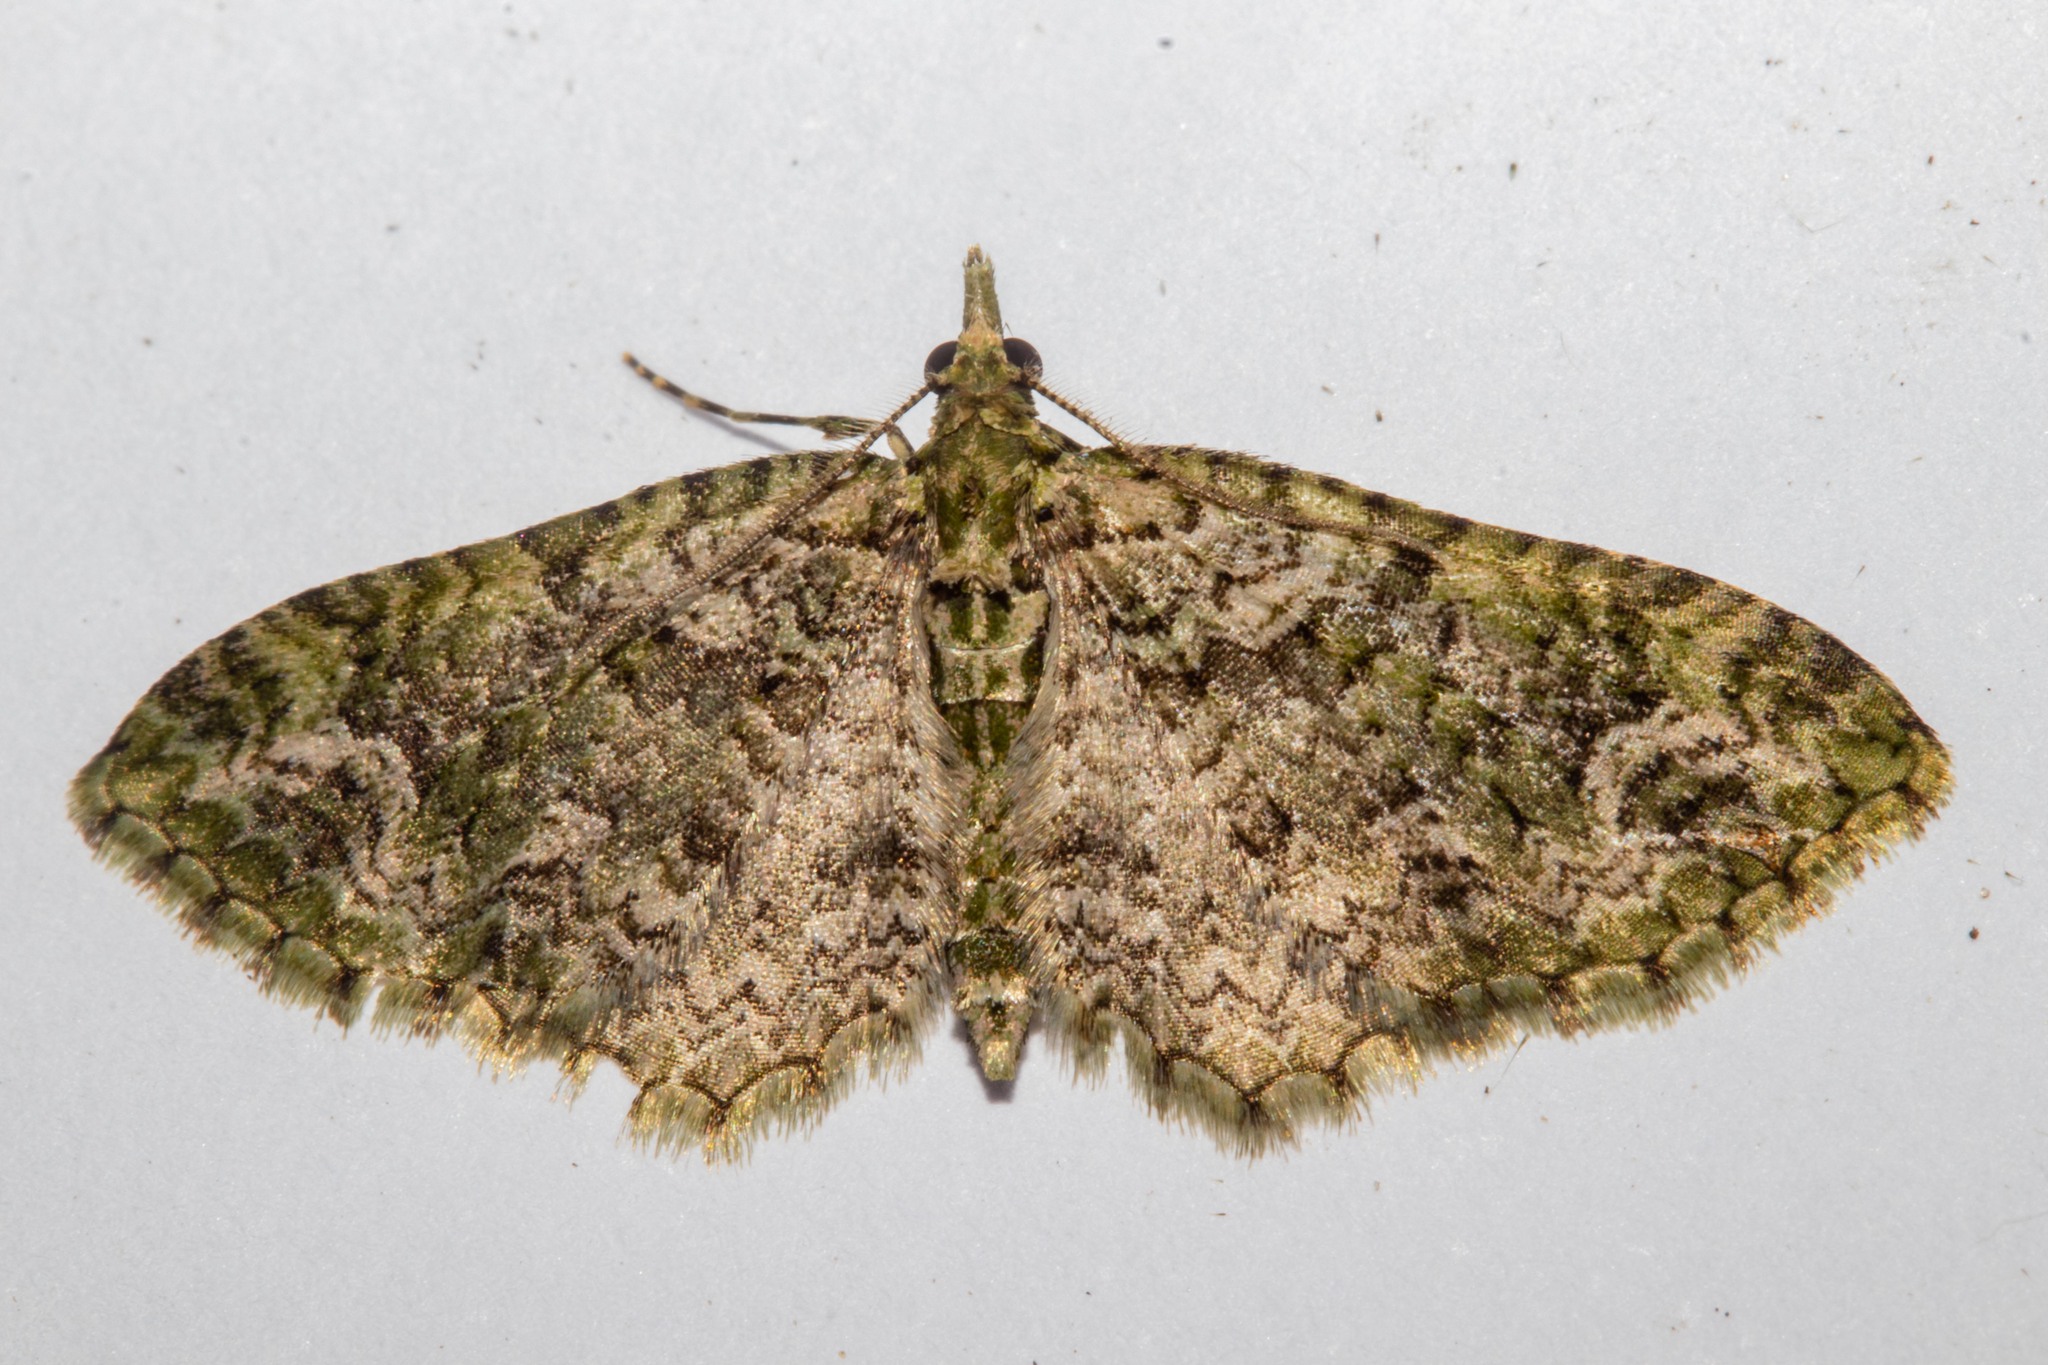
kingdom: Animalia
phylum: Arthropoda
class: Insecta
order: Lepidoptera
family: Geometridae
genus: Pasiphila
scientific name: Pasiphila muscosata
